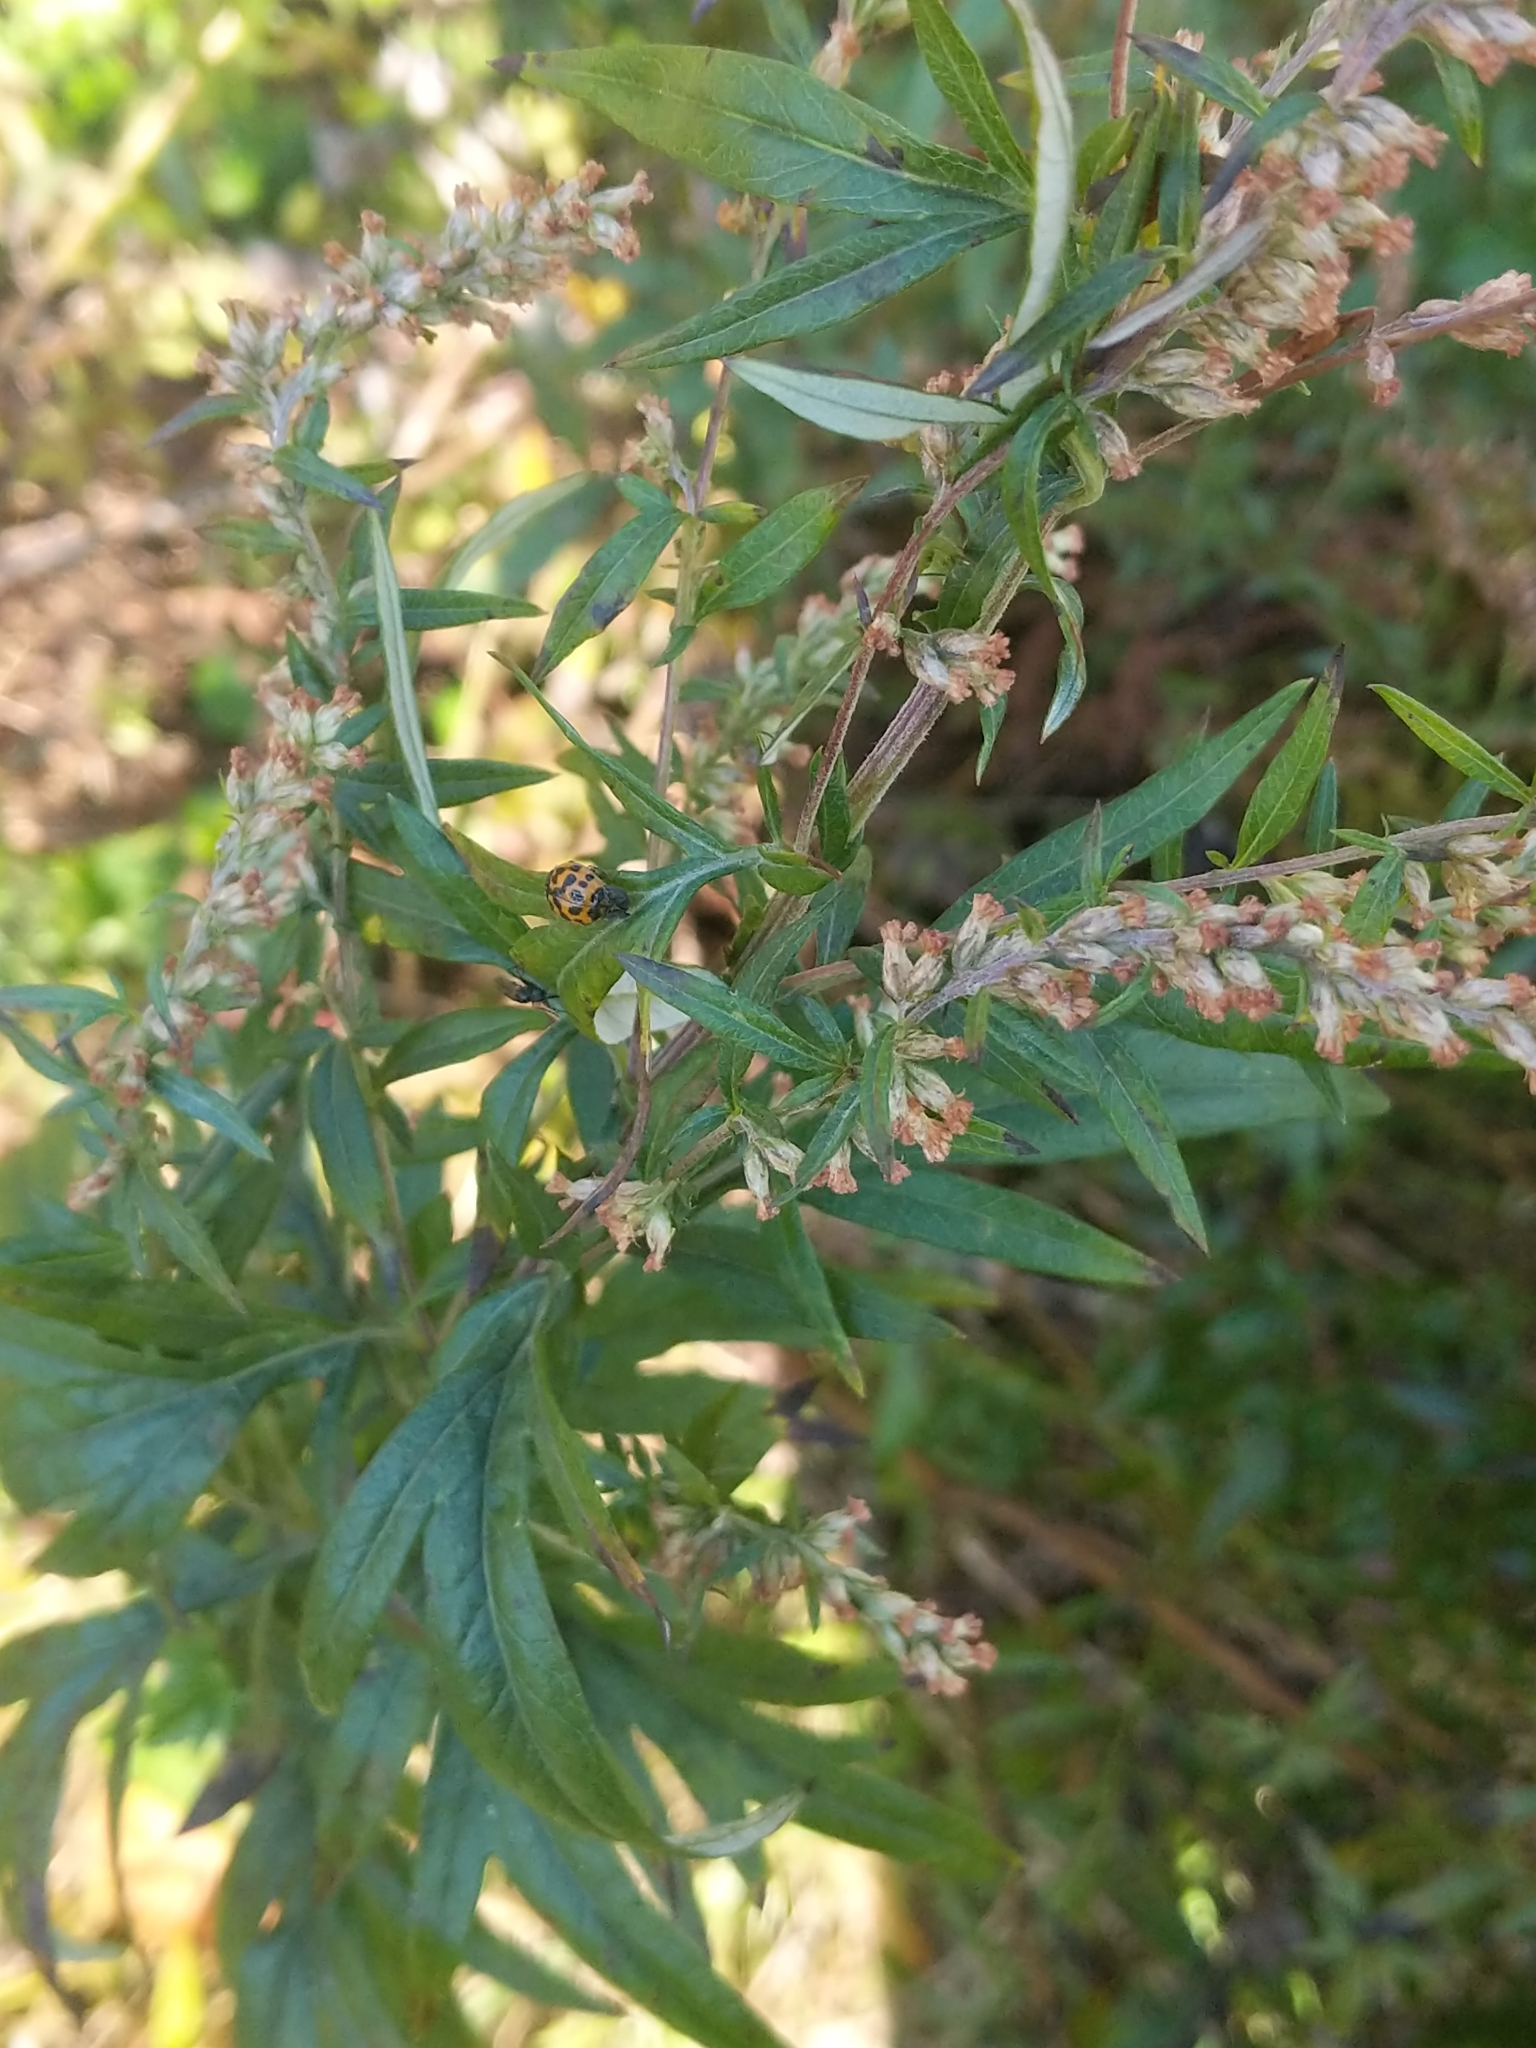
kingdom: Plantae
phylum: Tracheophyta
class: Magnoliopsida
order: Asterales
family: Asteraceae
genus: Artemisia
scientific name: Artemisia vulgaris
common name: Mugwort
